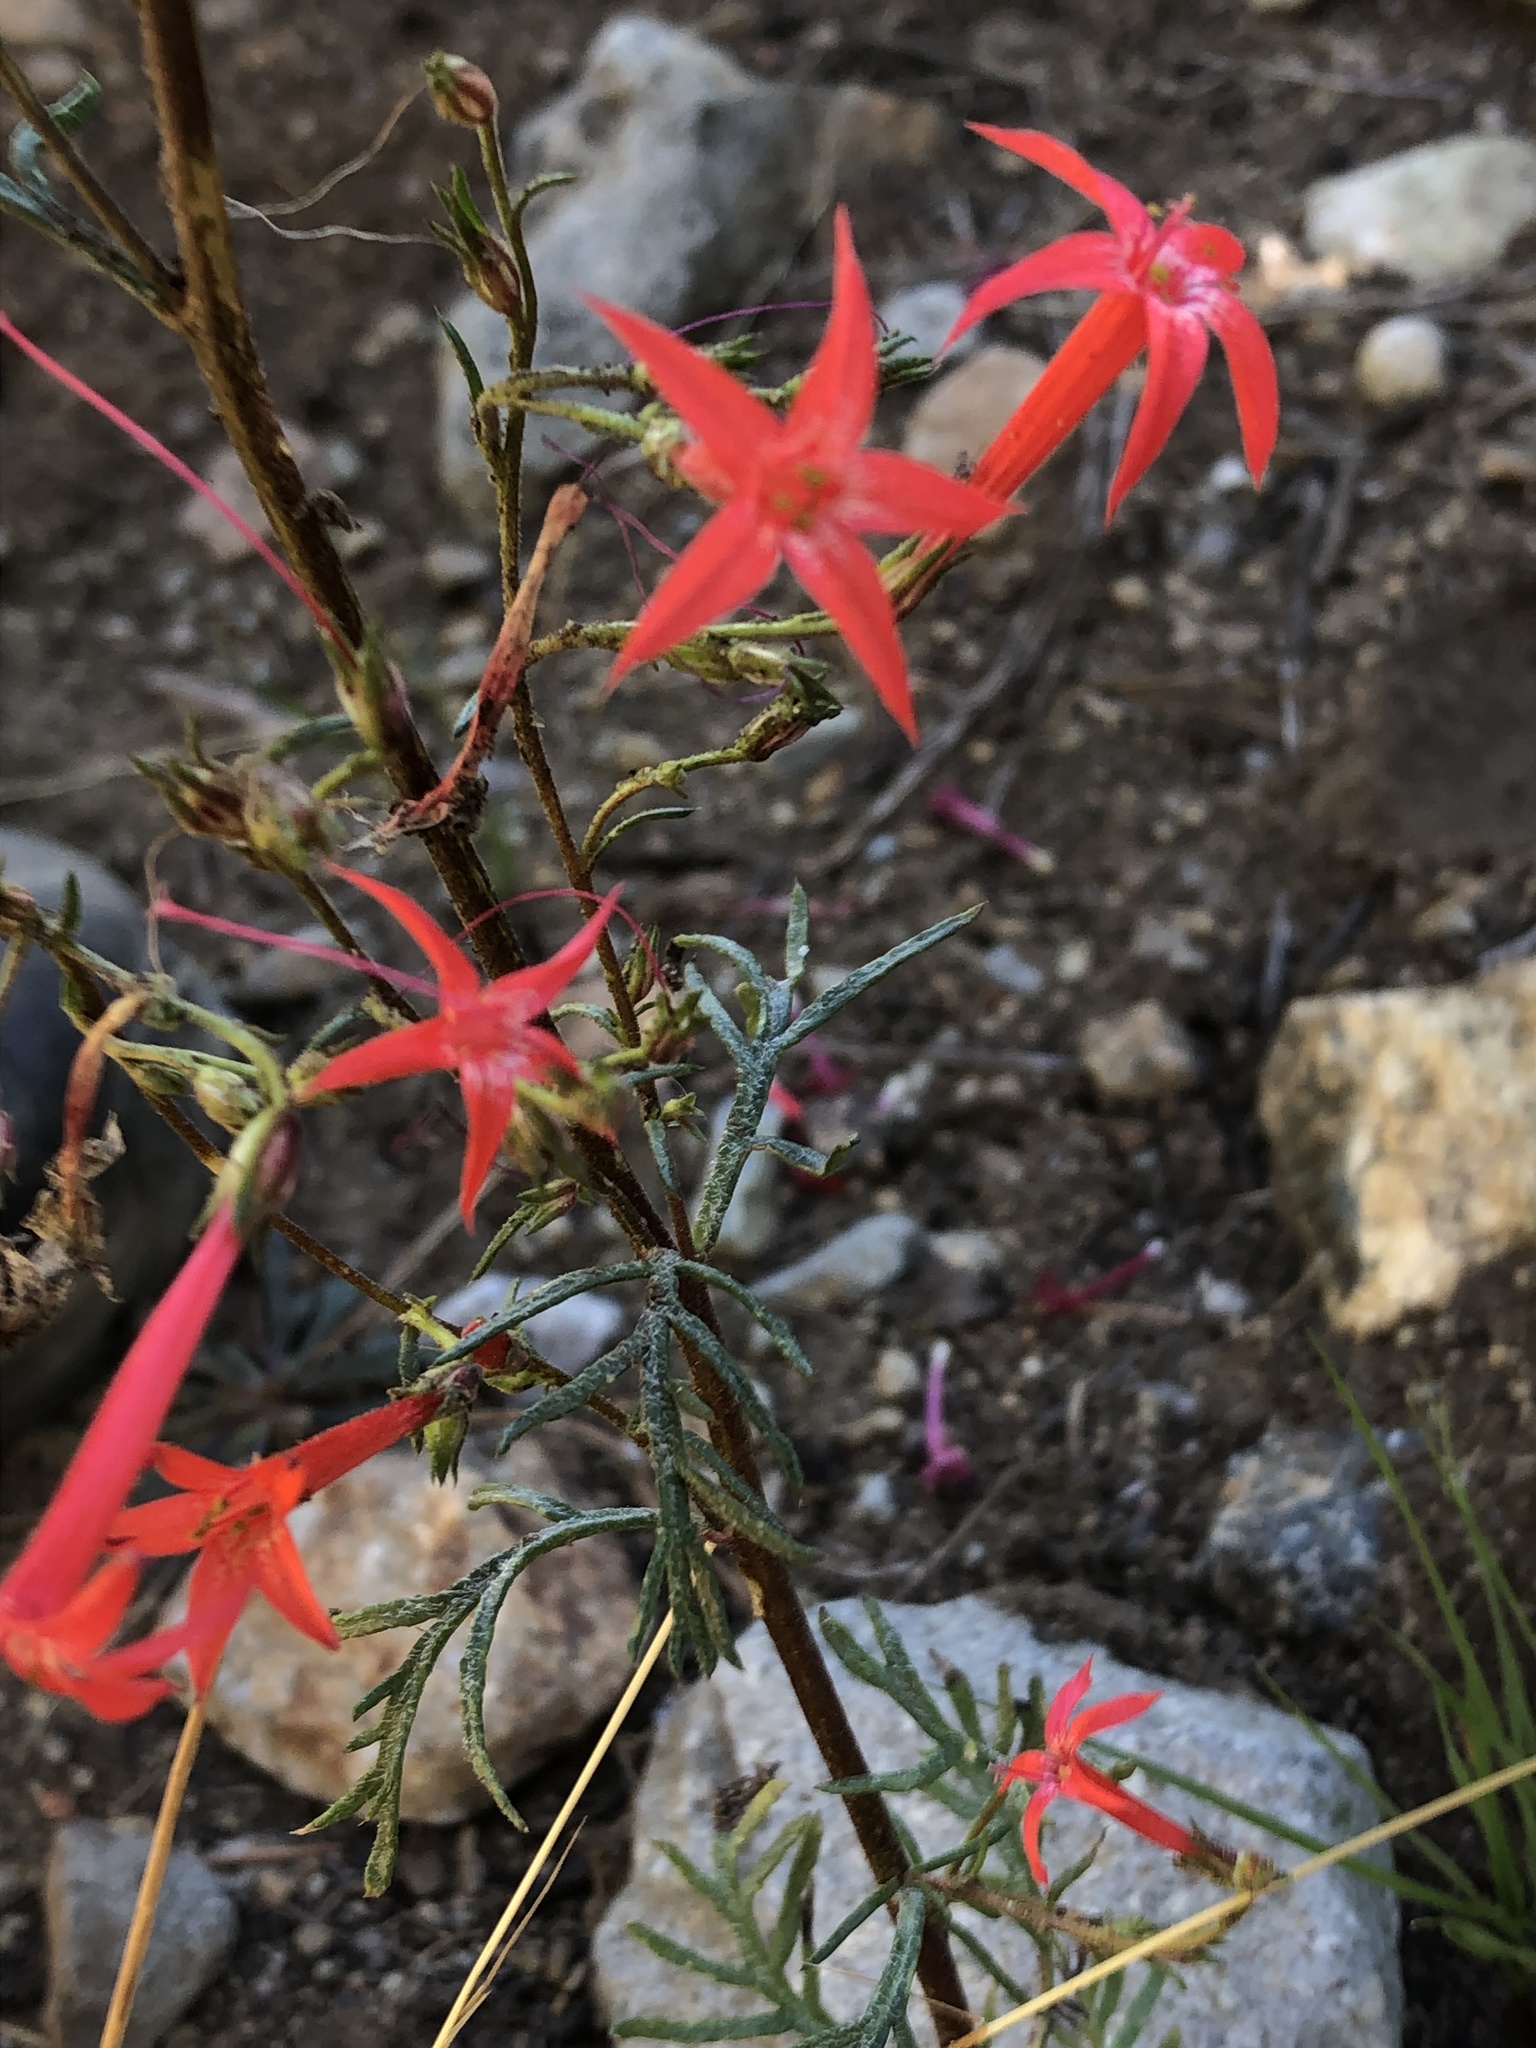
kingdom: Plantae
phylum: Tracheophyta
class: Magnoliopsida
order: Ericales
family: Polemoniaceae
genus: Ipomopsis
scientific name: Ipomopsis aggregata
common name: Scarlet gilia
